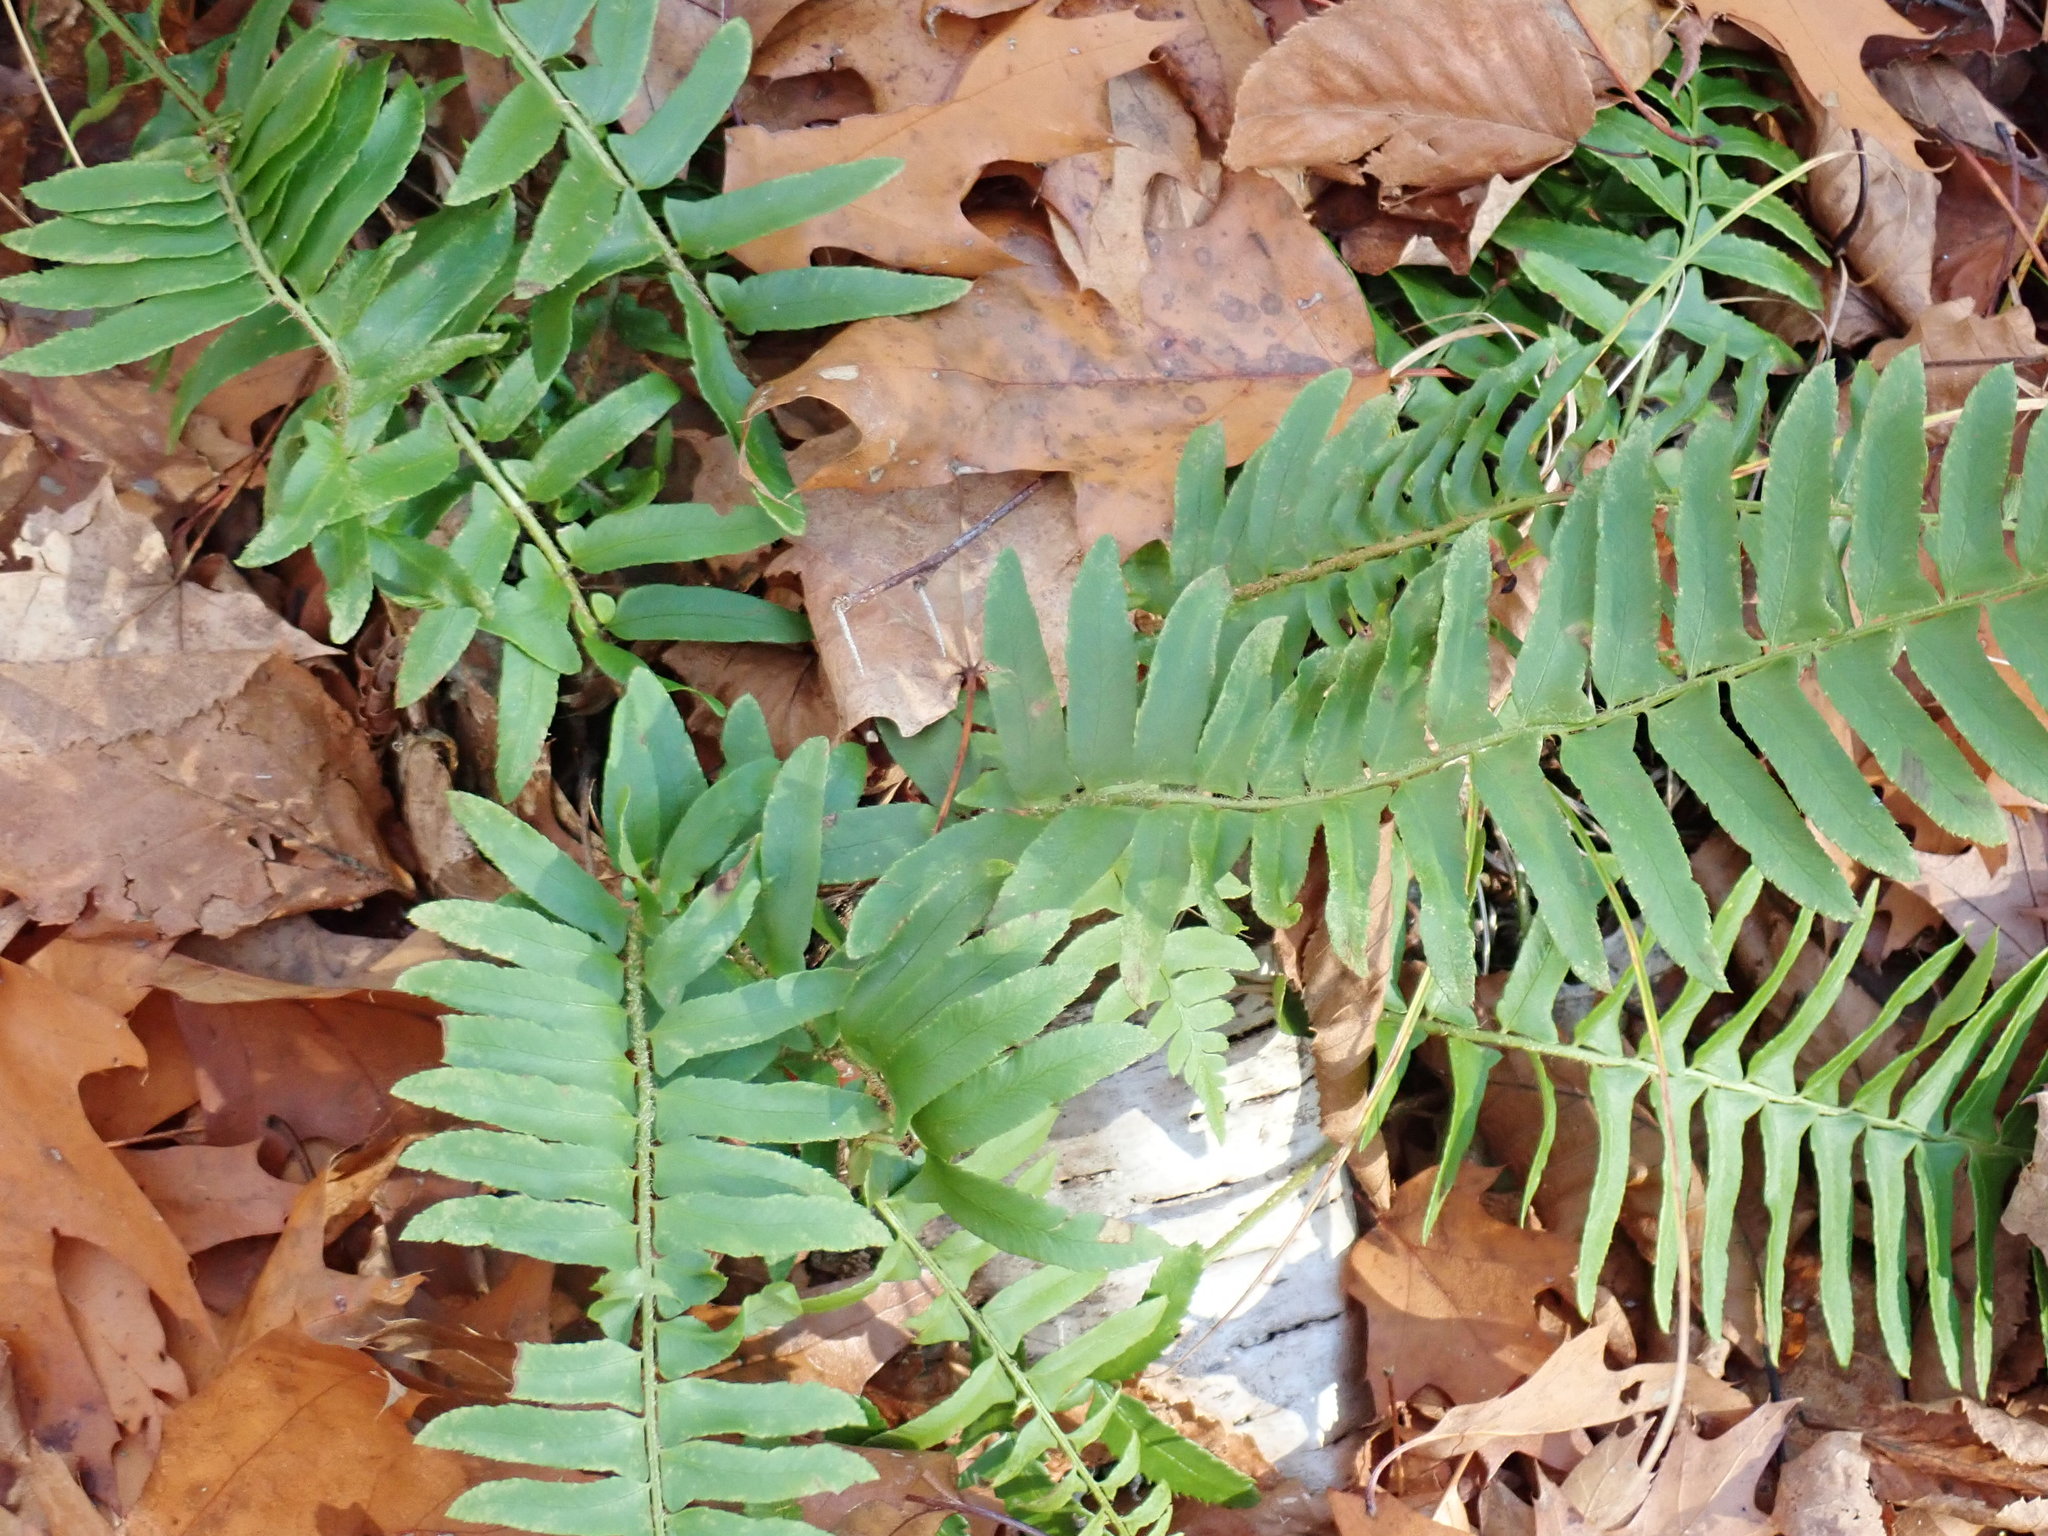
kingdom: Plantae
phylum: Tracheophyta
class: Polypodiopsida
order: Polypodiales
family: Dryopteridaceae
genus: Polystichum
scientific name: Polystichum acrostichoides
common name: Christmas fern
